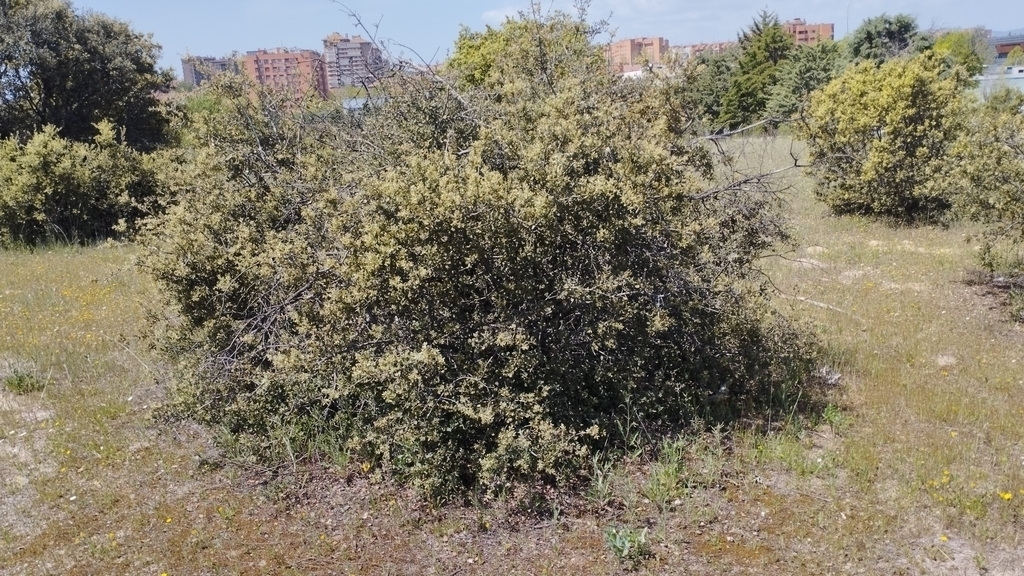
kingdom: Plantae
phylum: Tracheophyta
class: Magnoliopsida
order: Fagales
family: Fagaceae
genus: Quercus
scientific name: Quercus rotundifolia
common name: Holm oak
